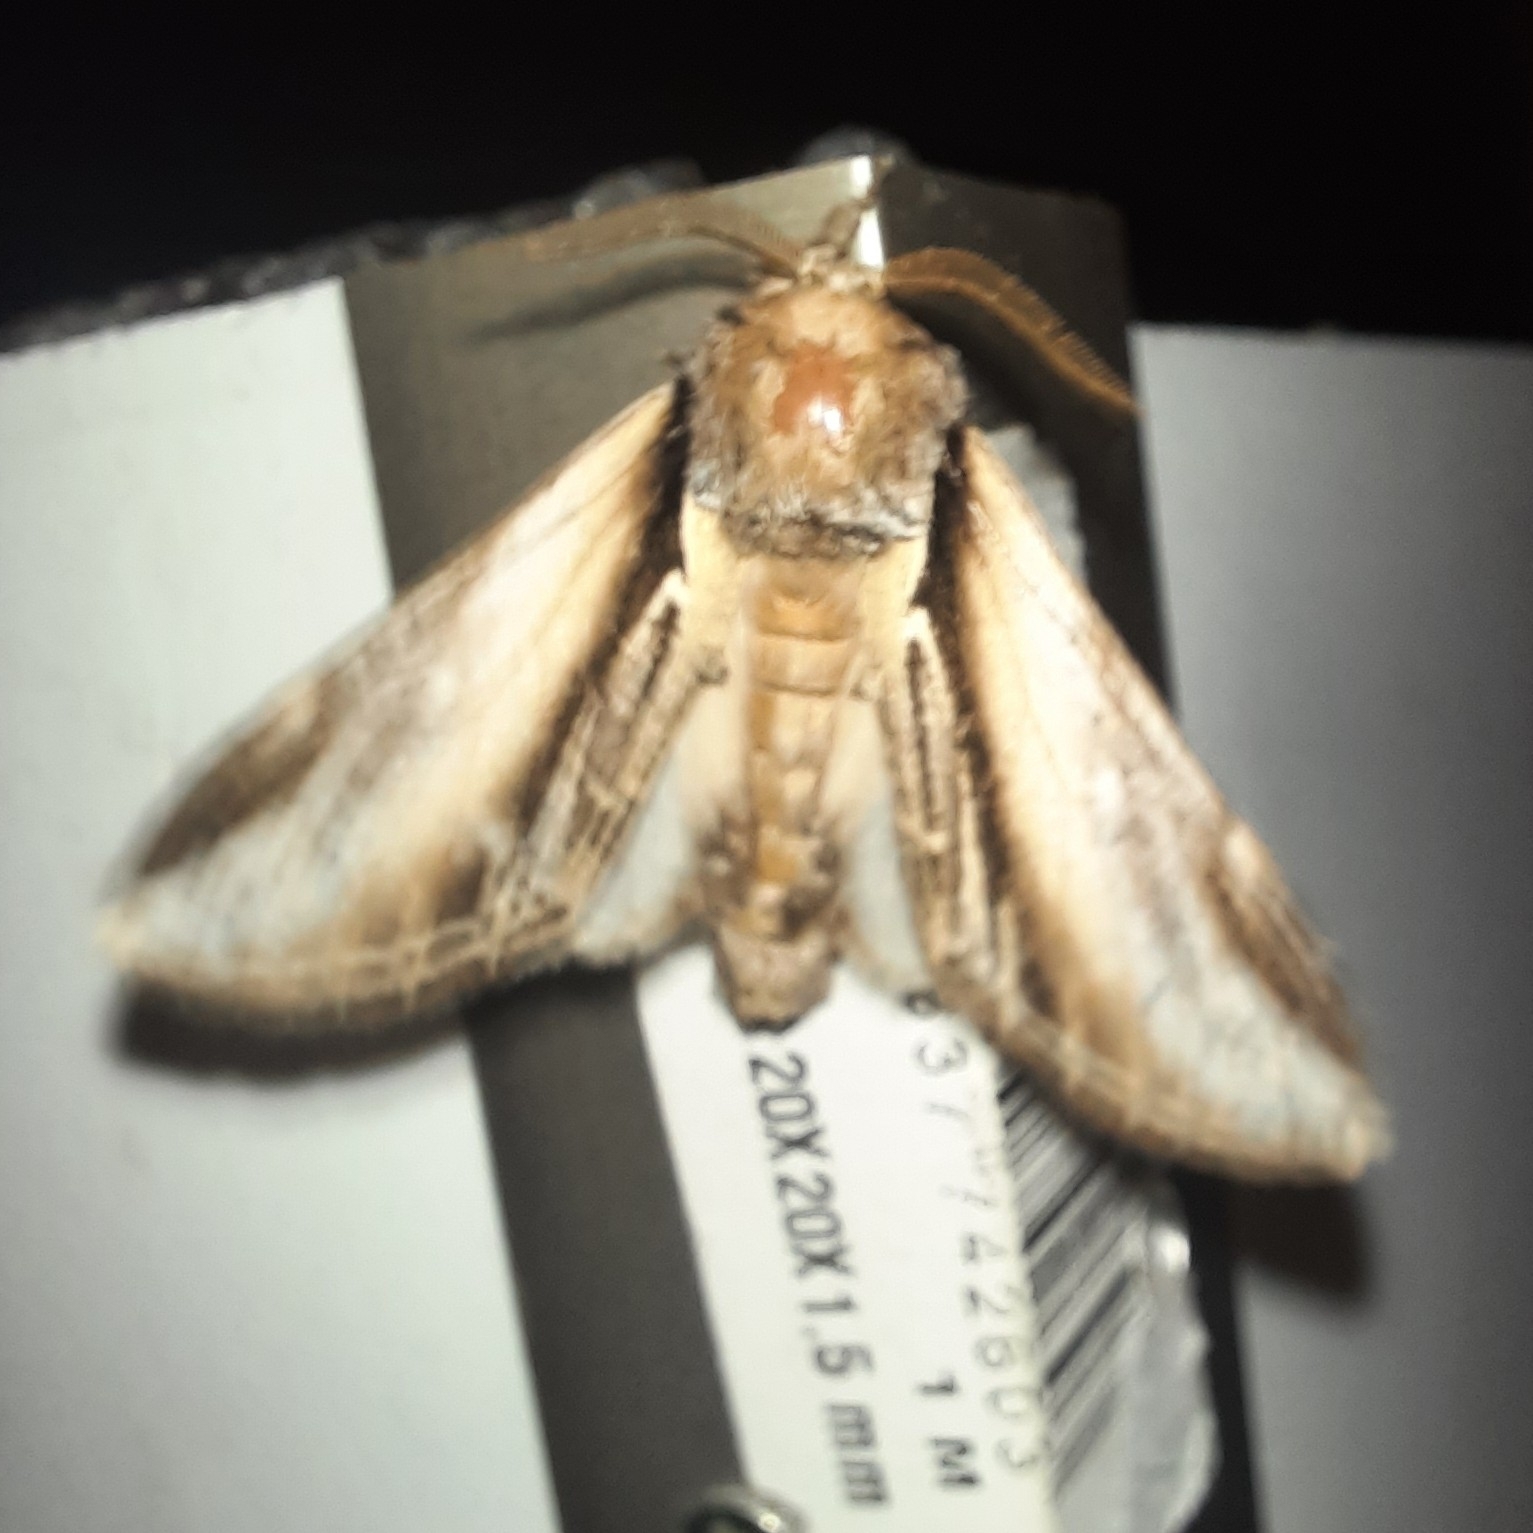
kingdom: Animalia
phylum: Arthropoda
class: Insecta
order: Lepidoptera
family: Notodontidae
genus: Pheosia
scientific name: Pheosia tremula
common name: Swallow prominent
